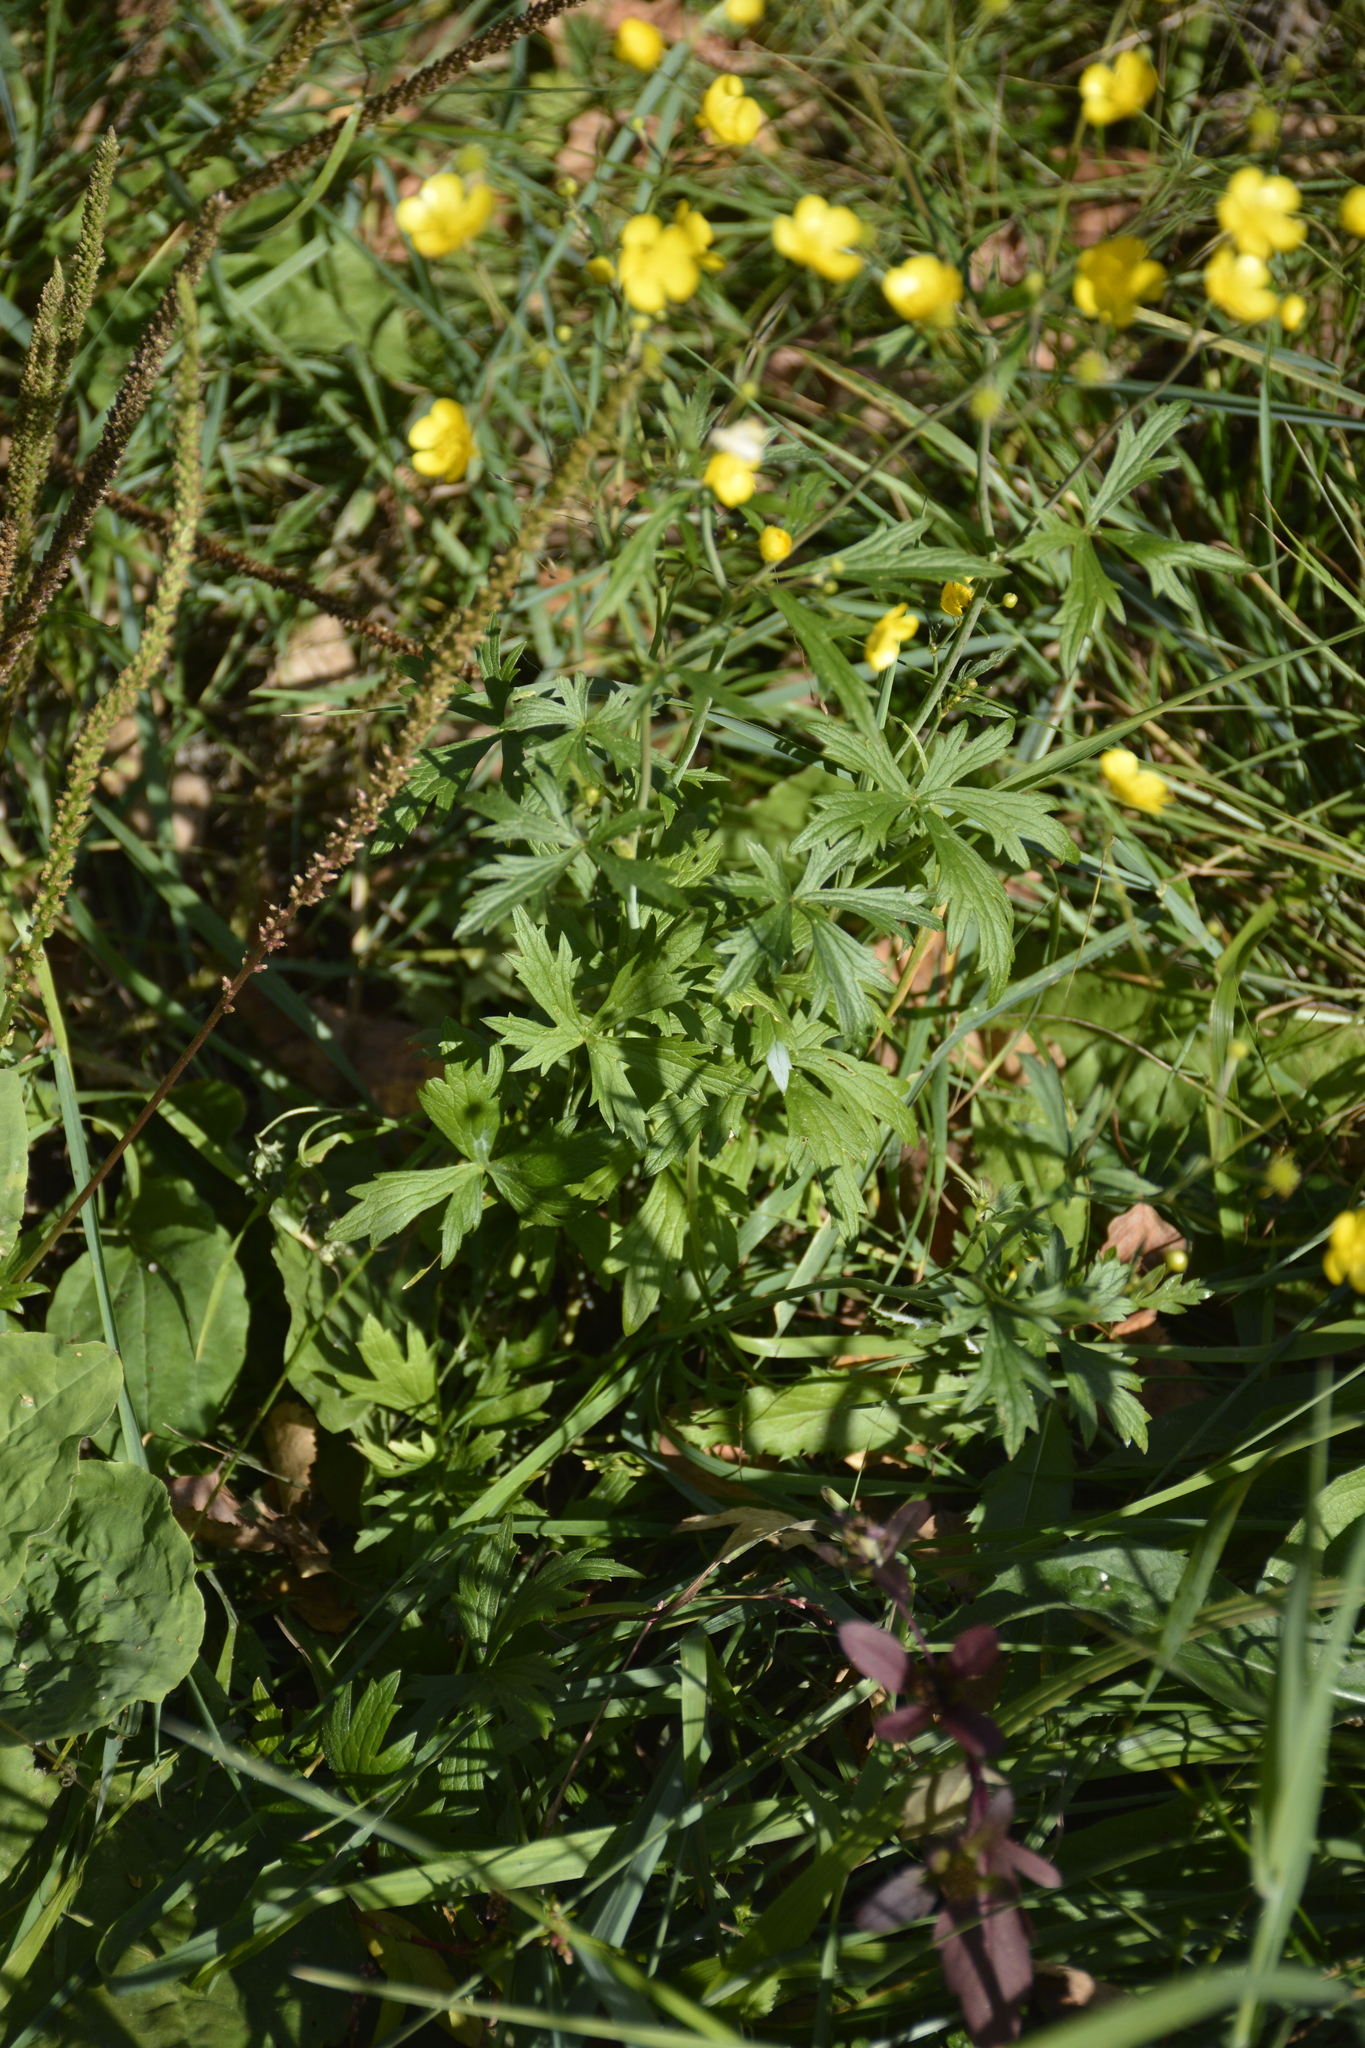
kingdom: Plantae
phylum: Tracheophyta
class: Magnoliopsida
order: Ranunculales
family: Ranunculaceae
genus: Ranunculus
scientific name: Ranunculus acris
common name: Meadow buttercup
